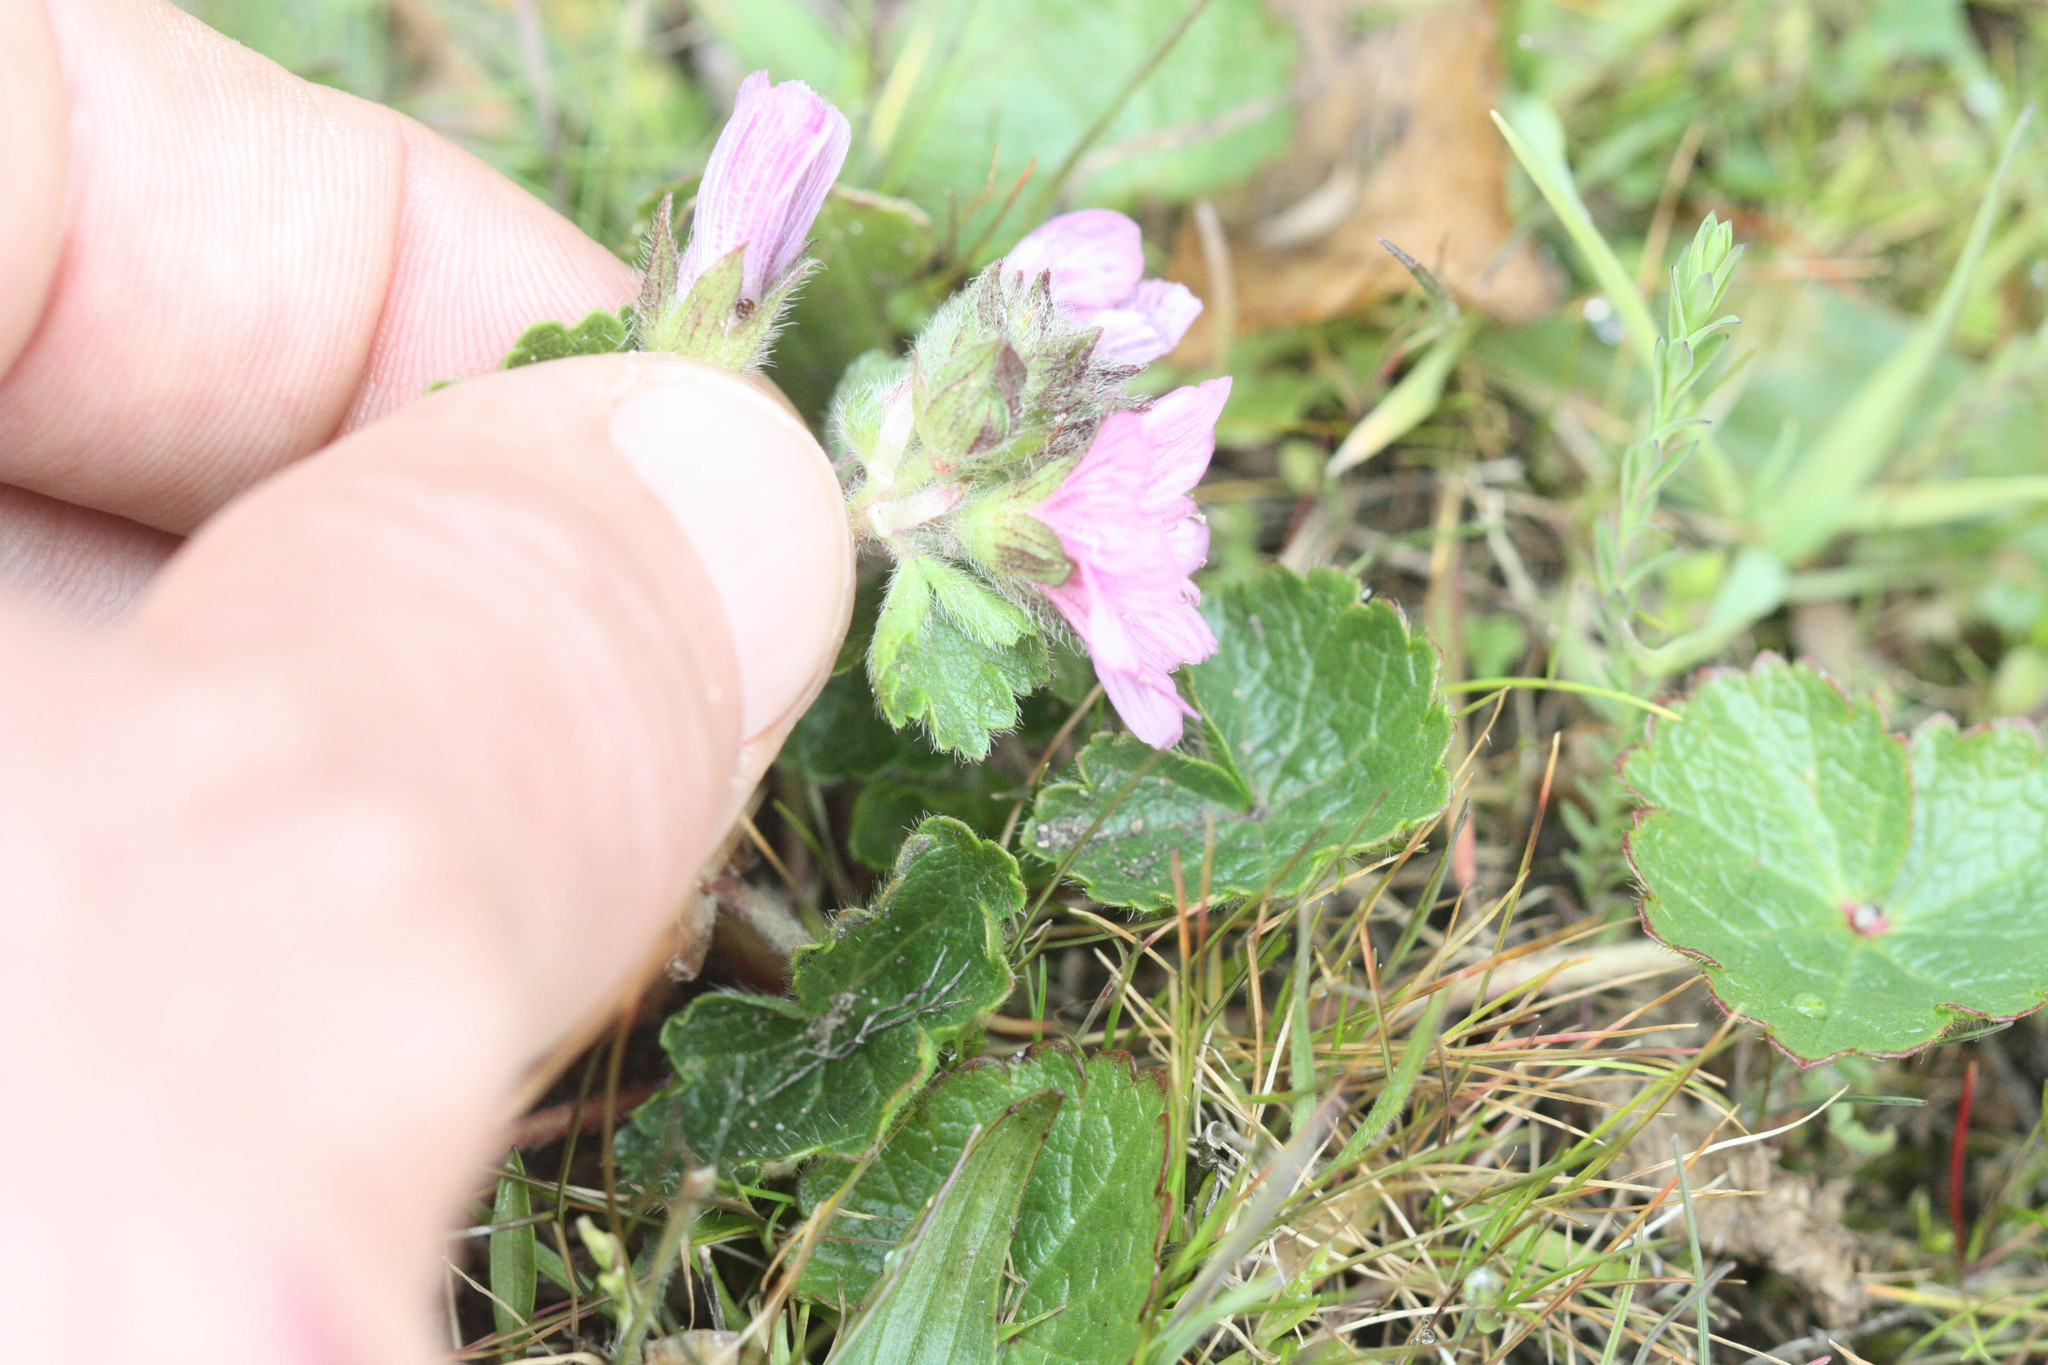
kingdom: Plantae
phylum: Tracheophyta
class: Magnoliopsida
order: Malvales
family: Malvaceae
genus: Sidalcea
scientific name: Sidalcea malviflora
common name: Greek mallow
